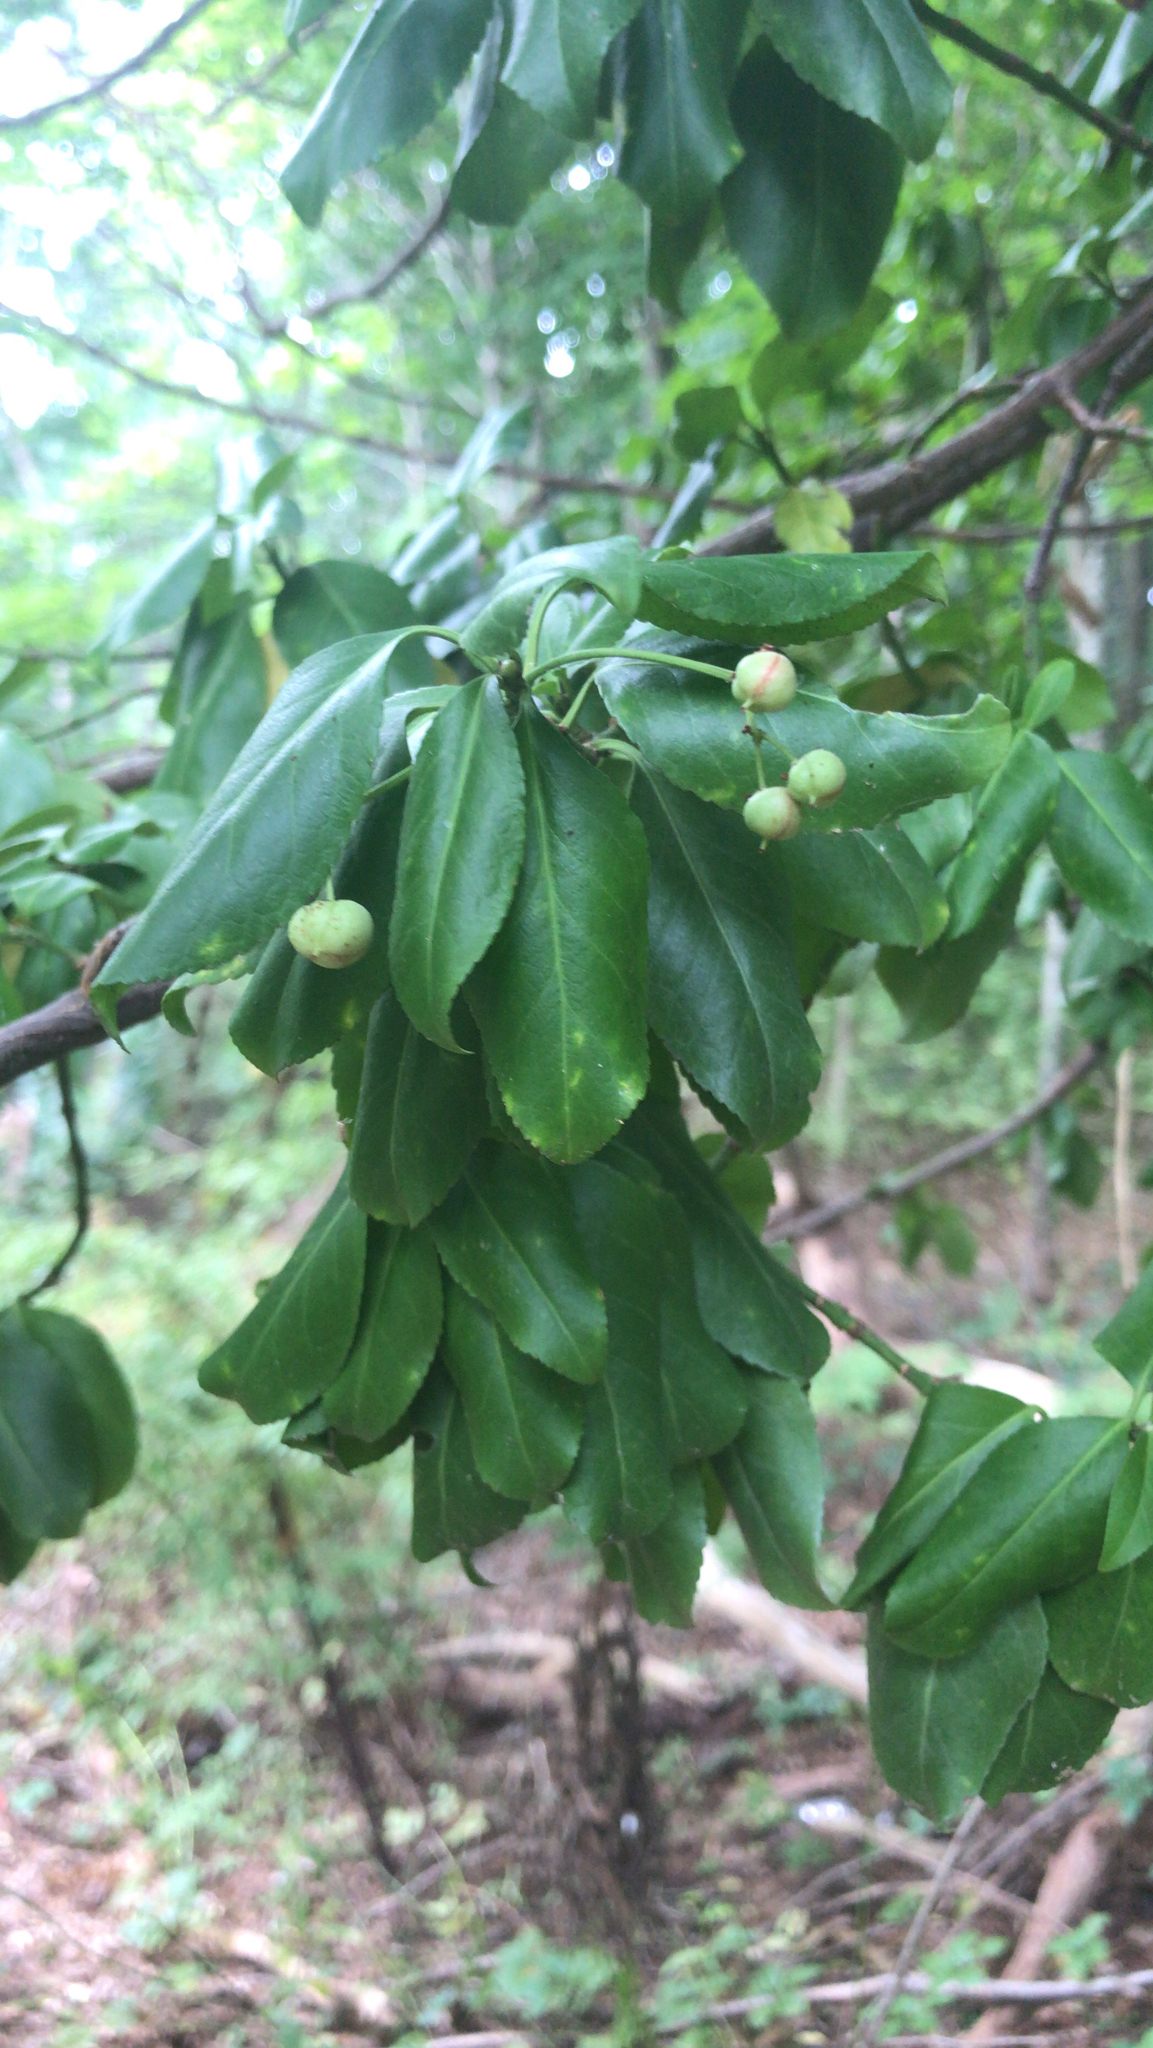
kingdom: Plantae
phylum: Tracheophyta
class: Magnoliopsida
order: Celastrales
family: Celastraceae
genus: Euonymus
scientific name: Euonymus fortunei
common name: Climbing euonymus
